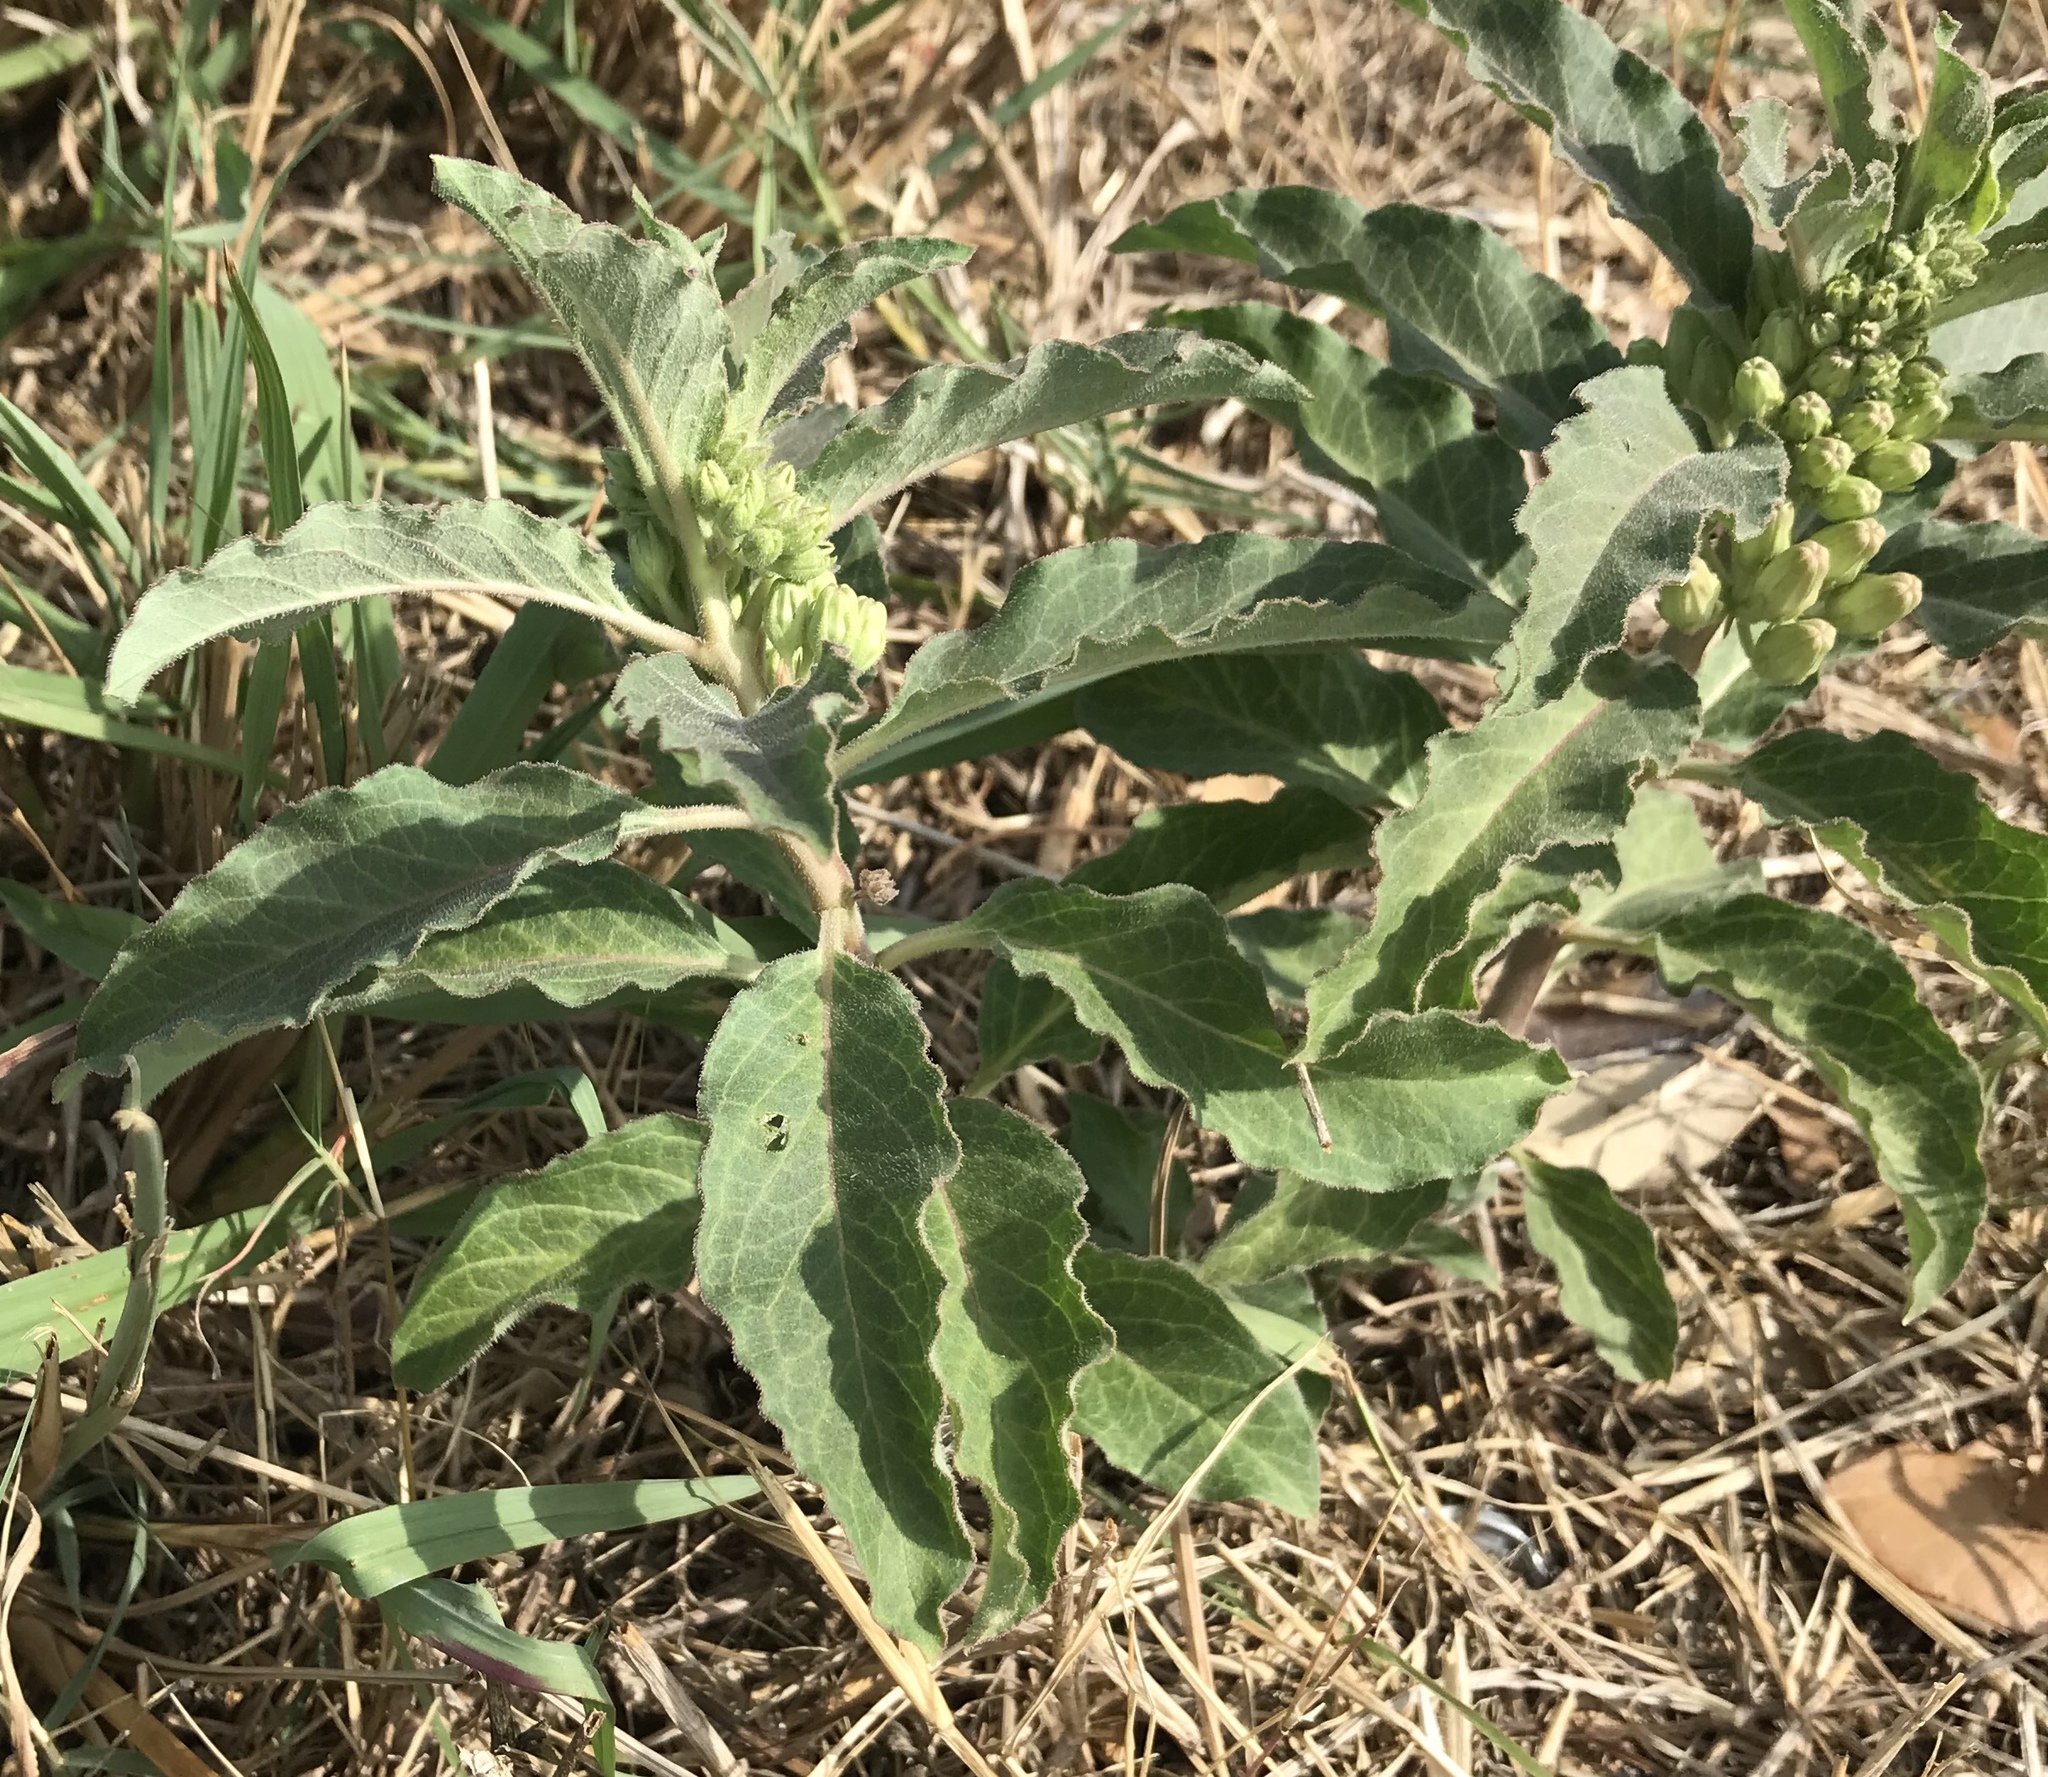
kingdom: Plantae
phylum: Tracheophyta
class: Magnoliopsida
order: Gentianales
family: Apocynaceae
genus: Asclepias
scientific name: Asclepias oenotheroides
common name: Zizotes milkweed
